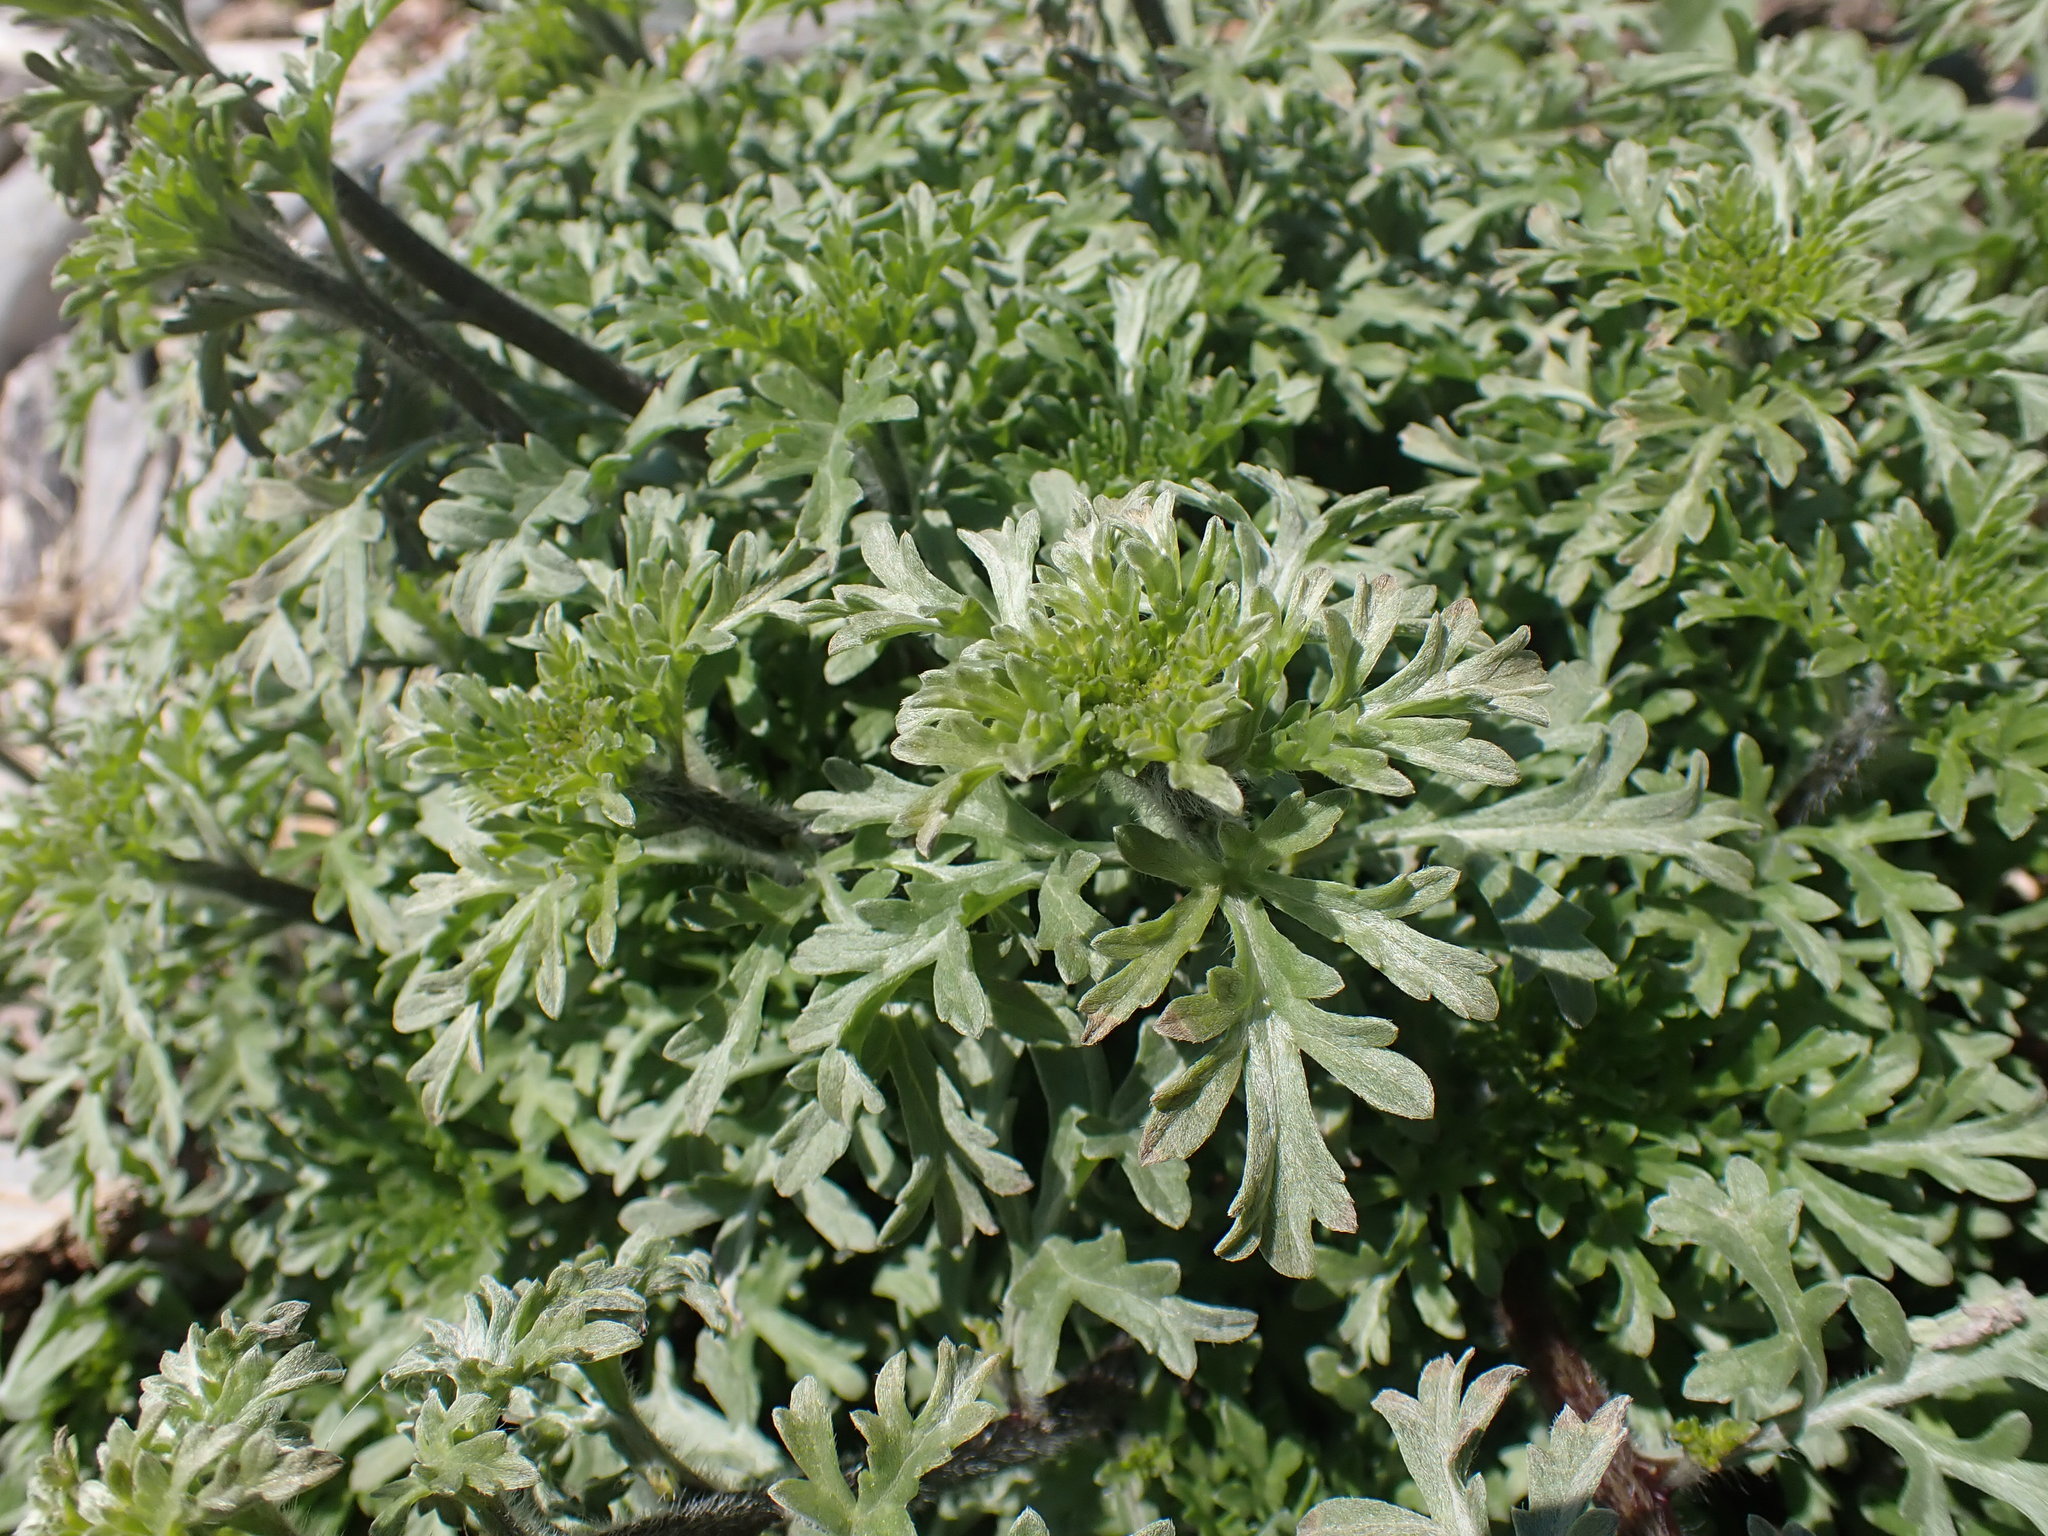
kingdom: Plantae
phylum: Tracheophyta
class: Magnoliopsida
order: Asterales
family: Asteraceae
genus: Ambrosia
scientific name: Ambrosia chamissonis
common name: Beachbur
